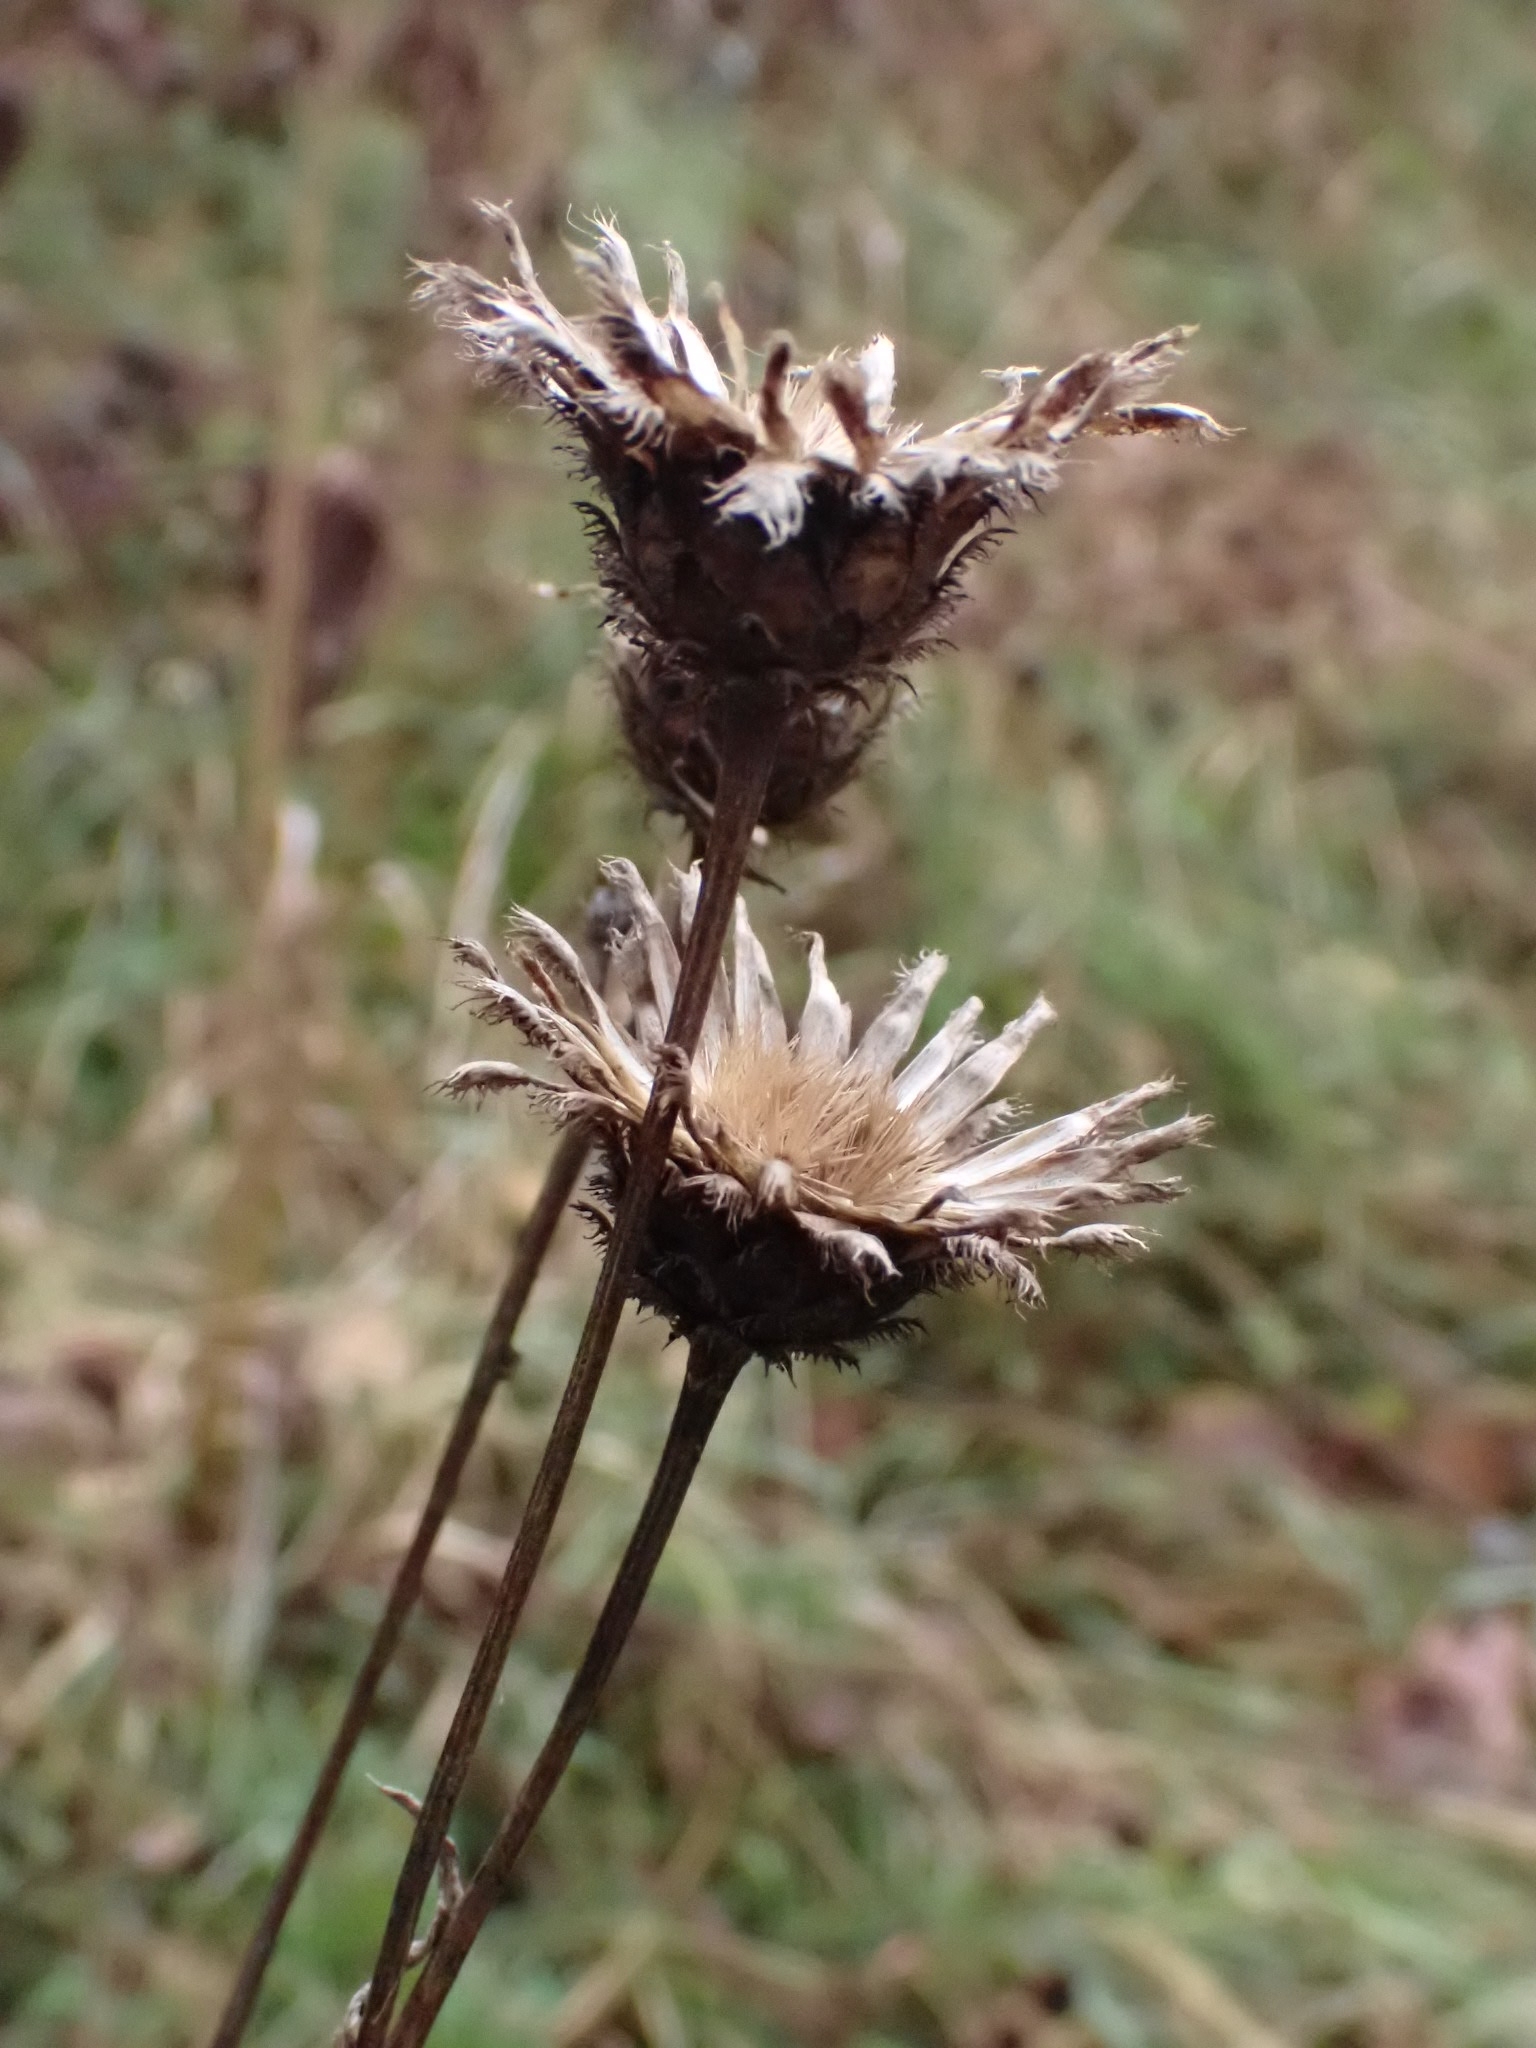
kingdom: Plantae
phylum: Tracheophyta
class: Magnoliopsida
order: Asterales
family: Asteraceae
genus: Centaurea
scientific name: Centaurea scabiosa
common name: Greater knapweed
